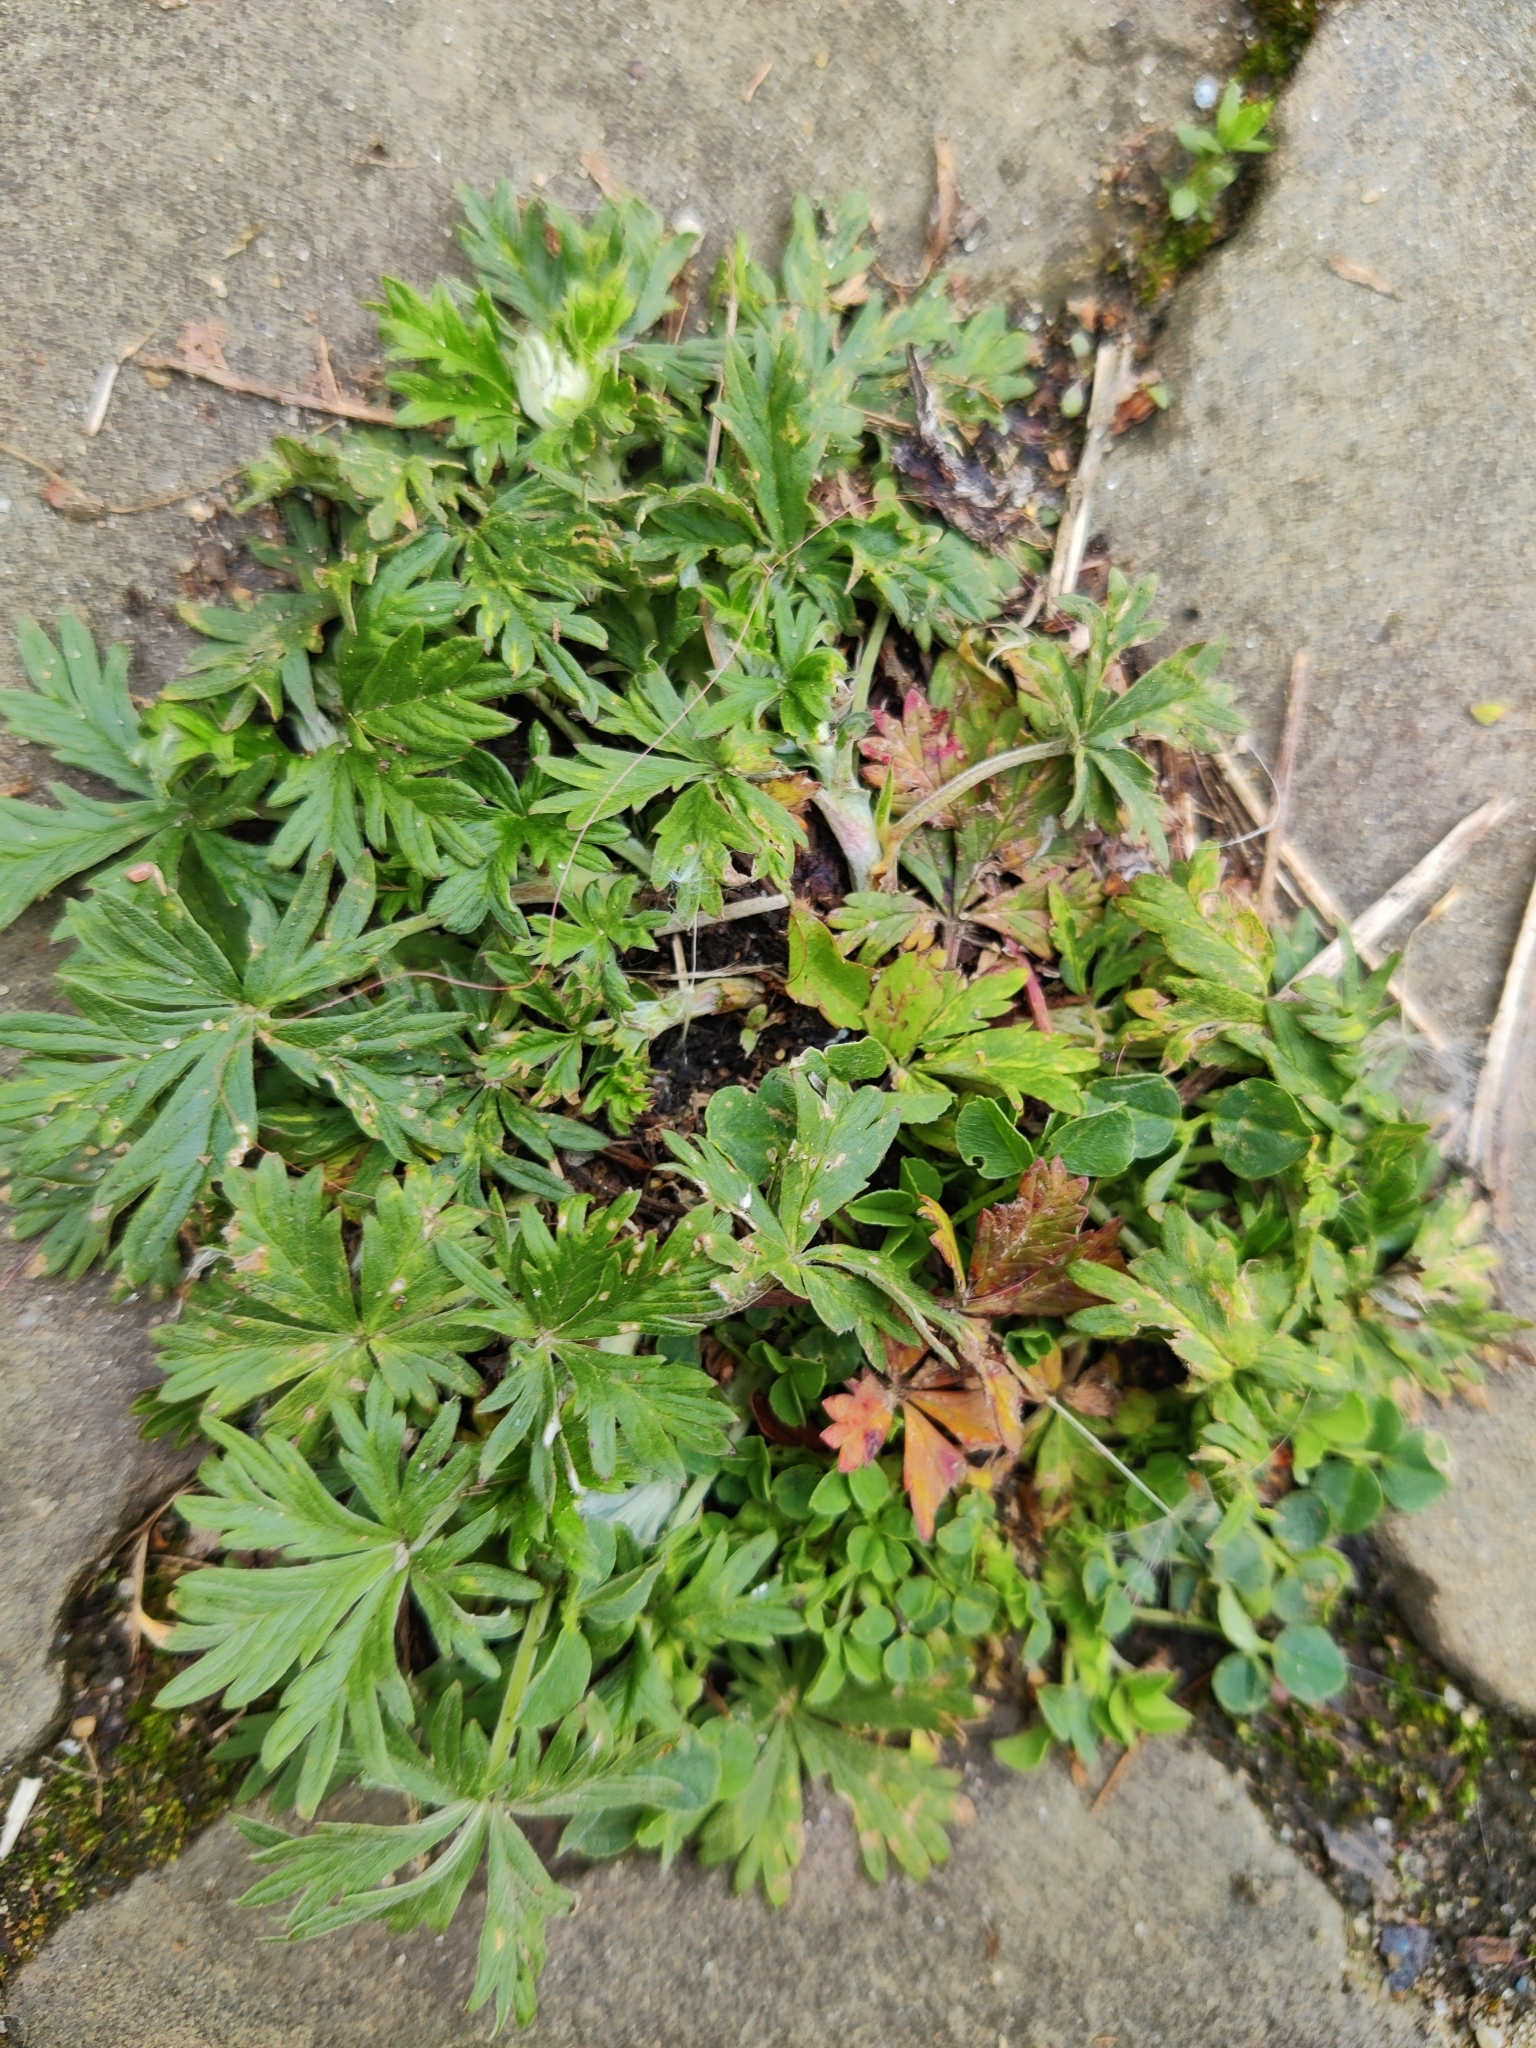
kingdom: Plantae
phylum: Tracheophyta
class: Magnoliopsida
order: Rosales
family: Rosaceae
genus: Potentilla
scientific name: Potentilla argentea
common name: Hoary cinquefoil
